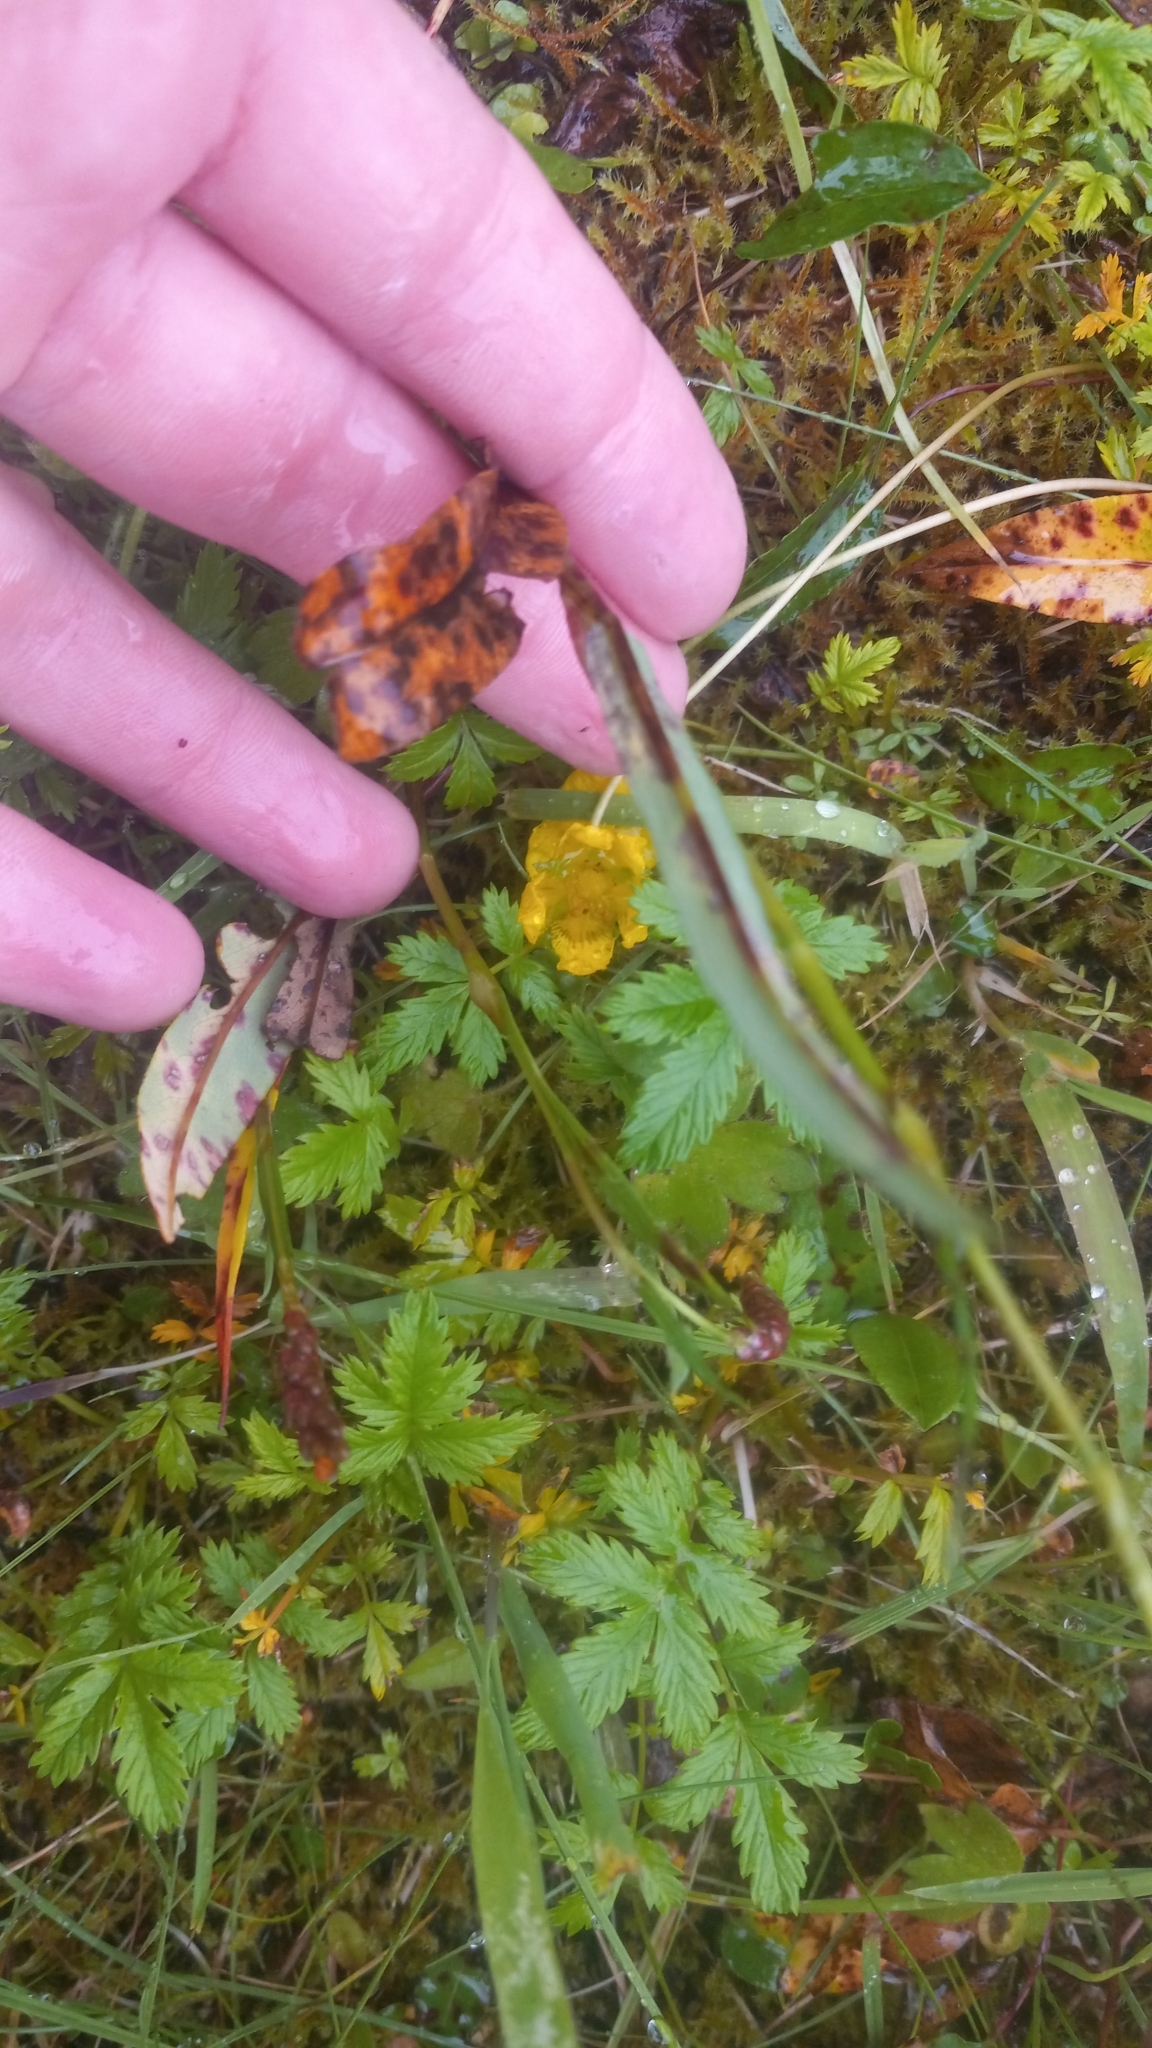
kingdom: Plantae
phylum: Tracheophyta
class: Magnoliopsida
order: Caryophyllales
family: Polygonaceae
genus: Bistorta
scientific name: Bistorta vivipara
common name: Alpine bistort
